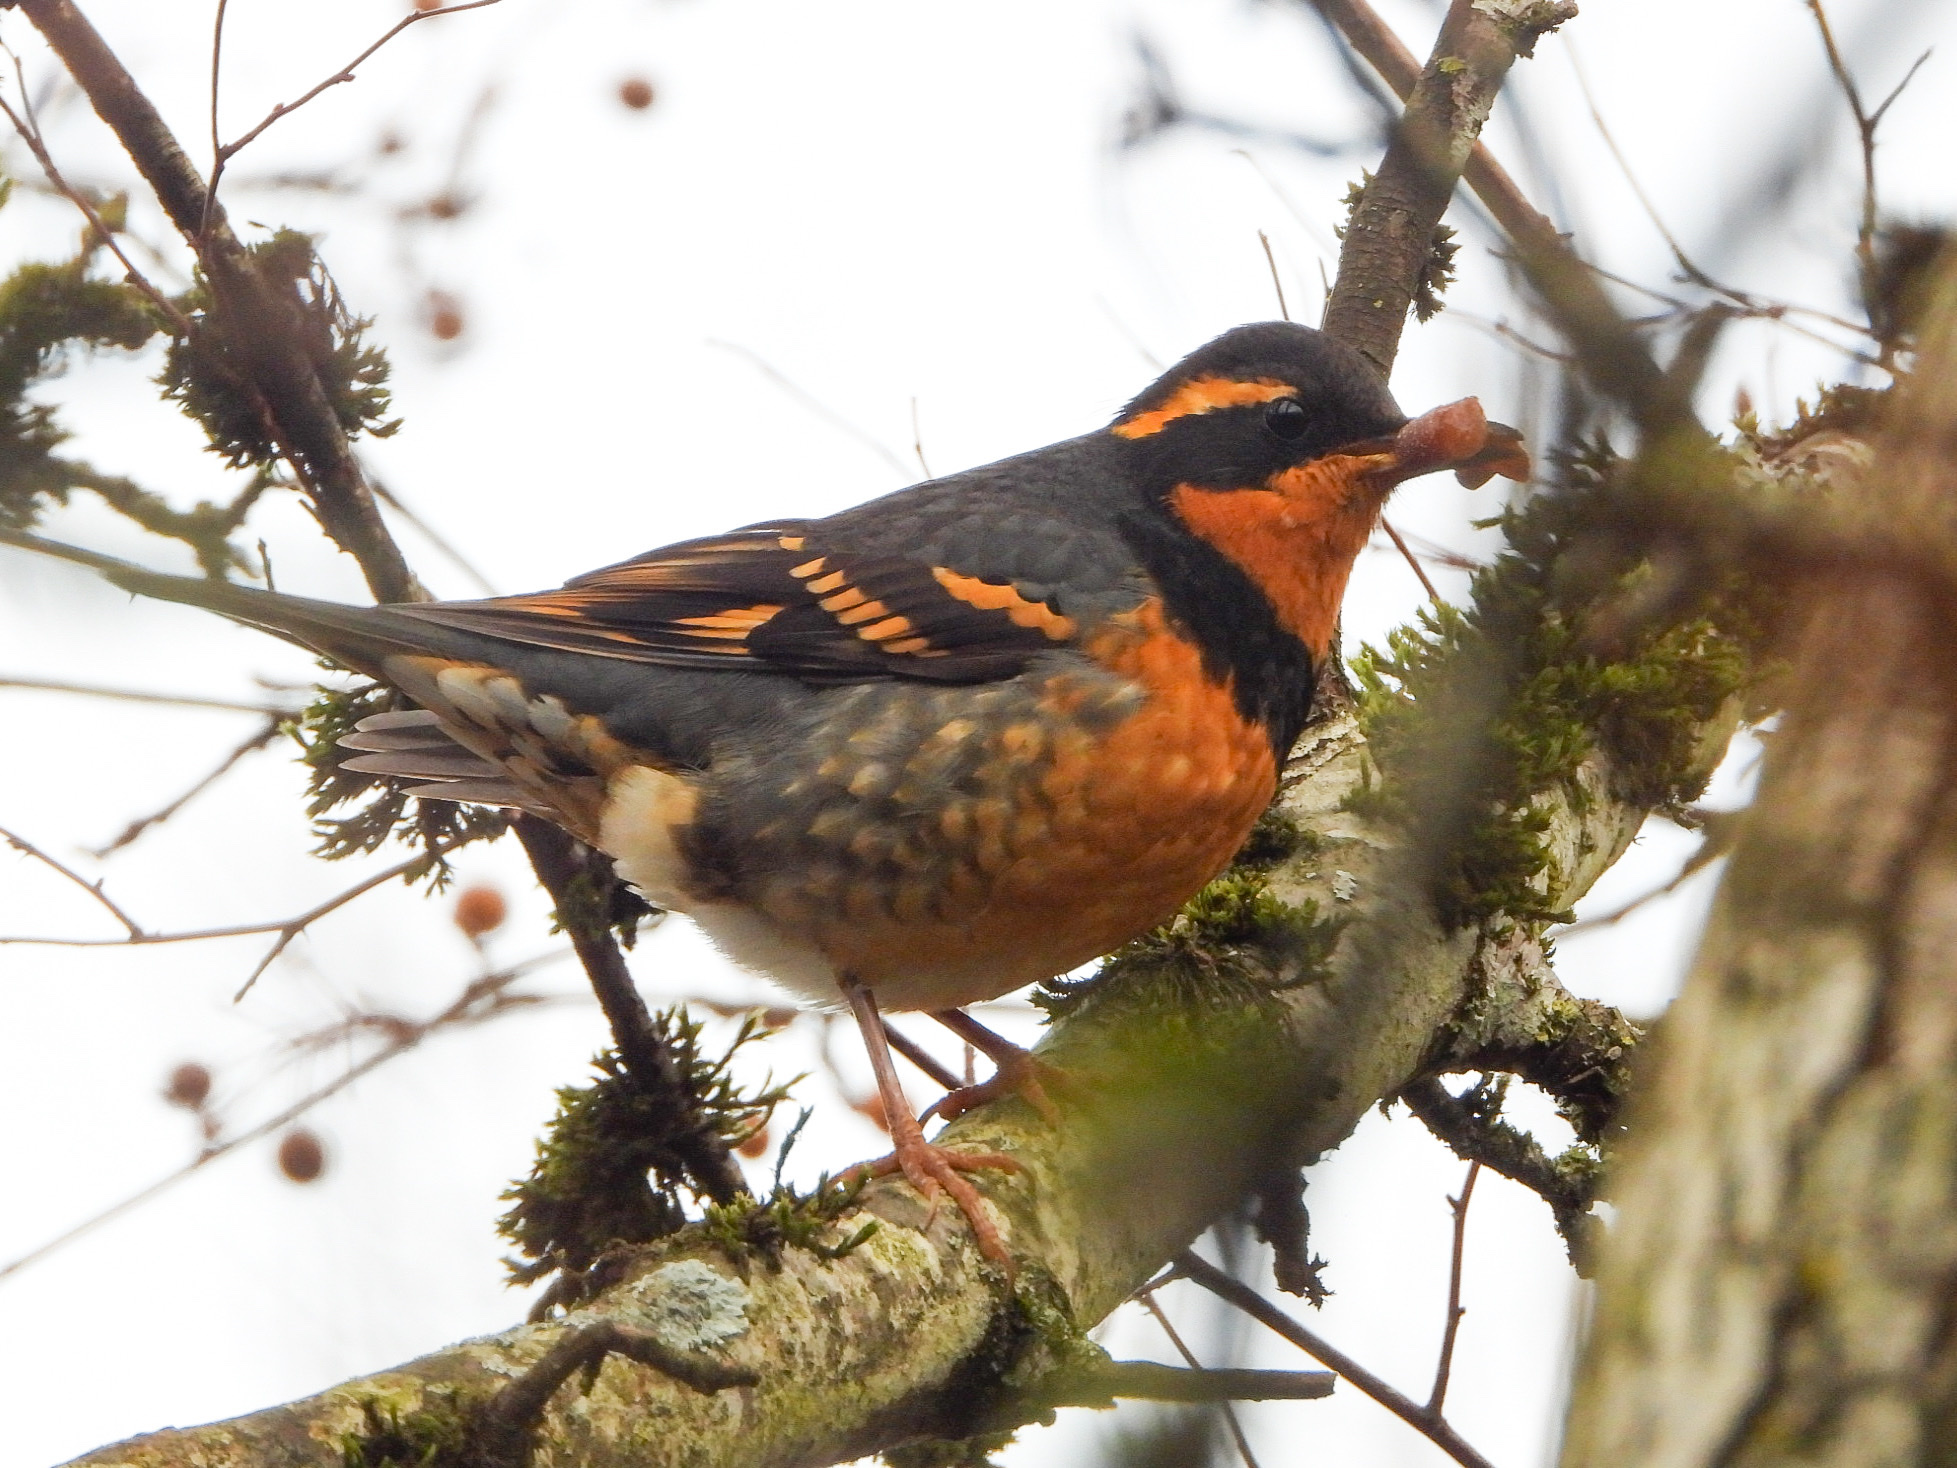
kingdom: Animalia
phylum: Chordata
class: Aves
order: Passeriformes
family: Turdidae
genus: Ixoreus
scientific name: Ixoreus naevius
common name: Varied thrush
